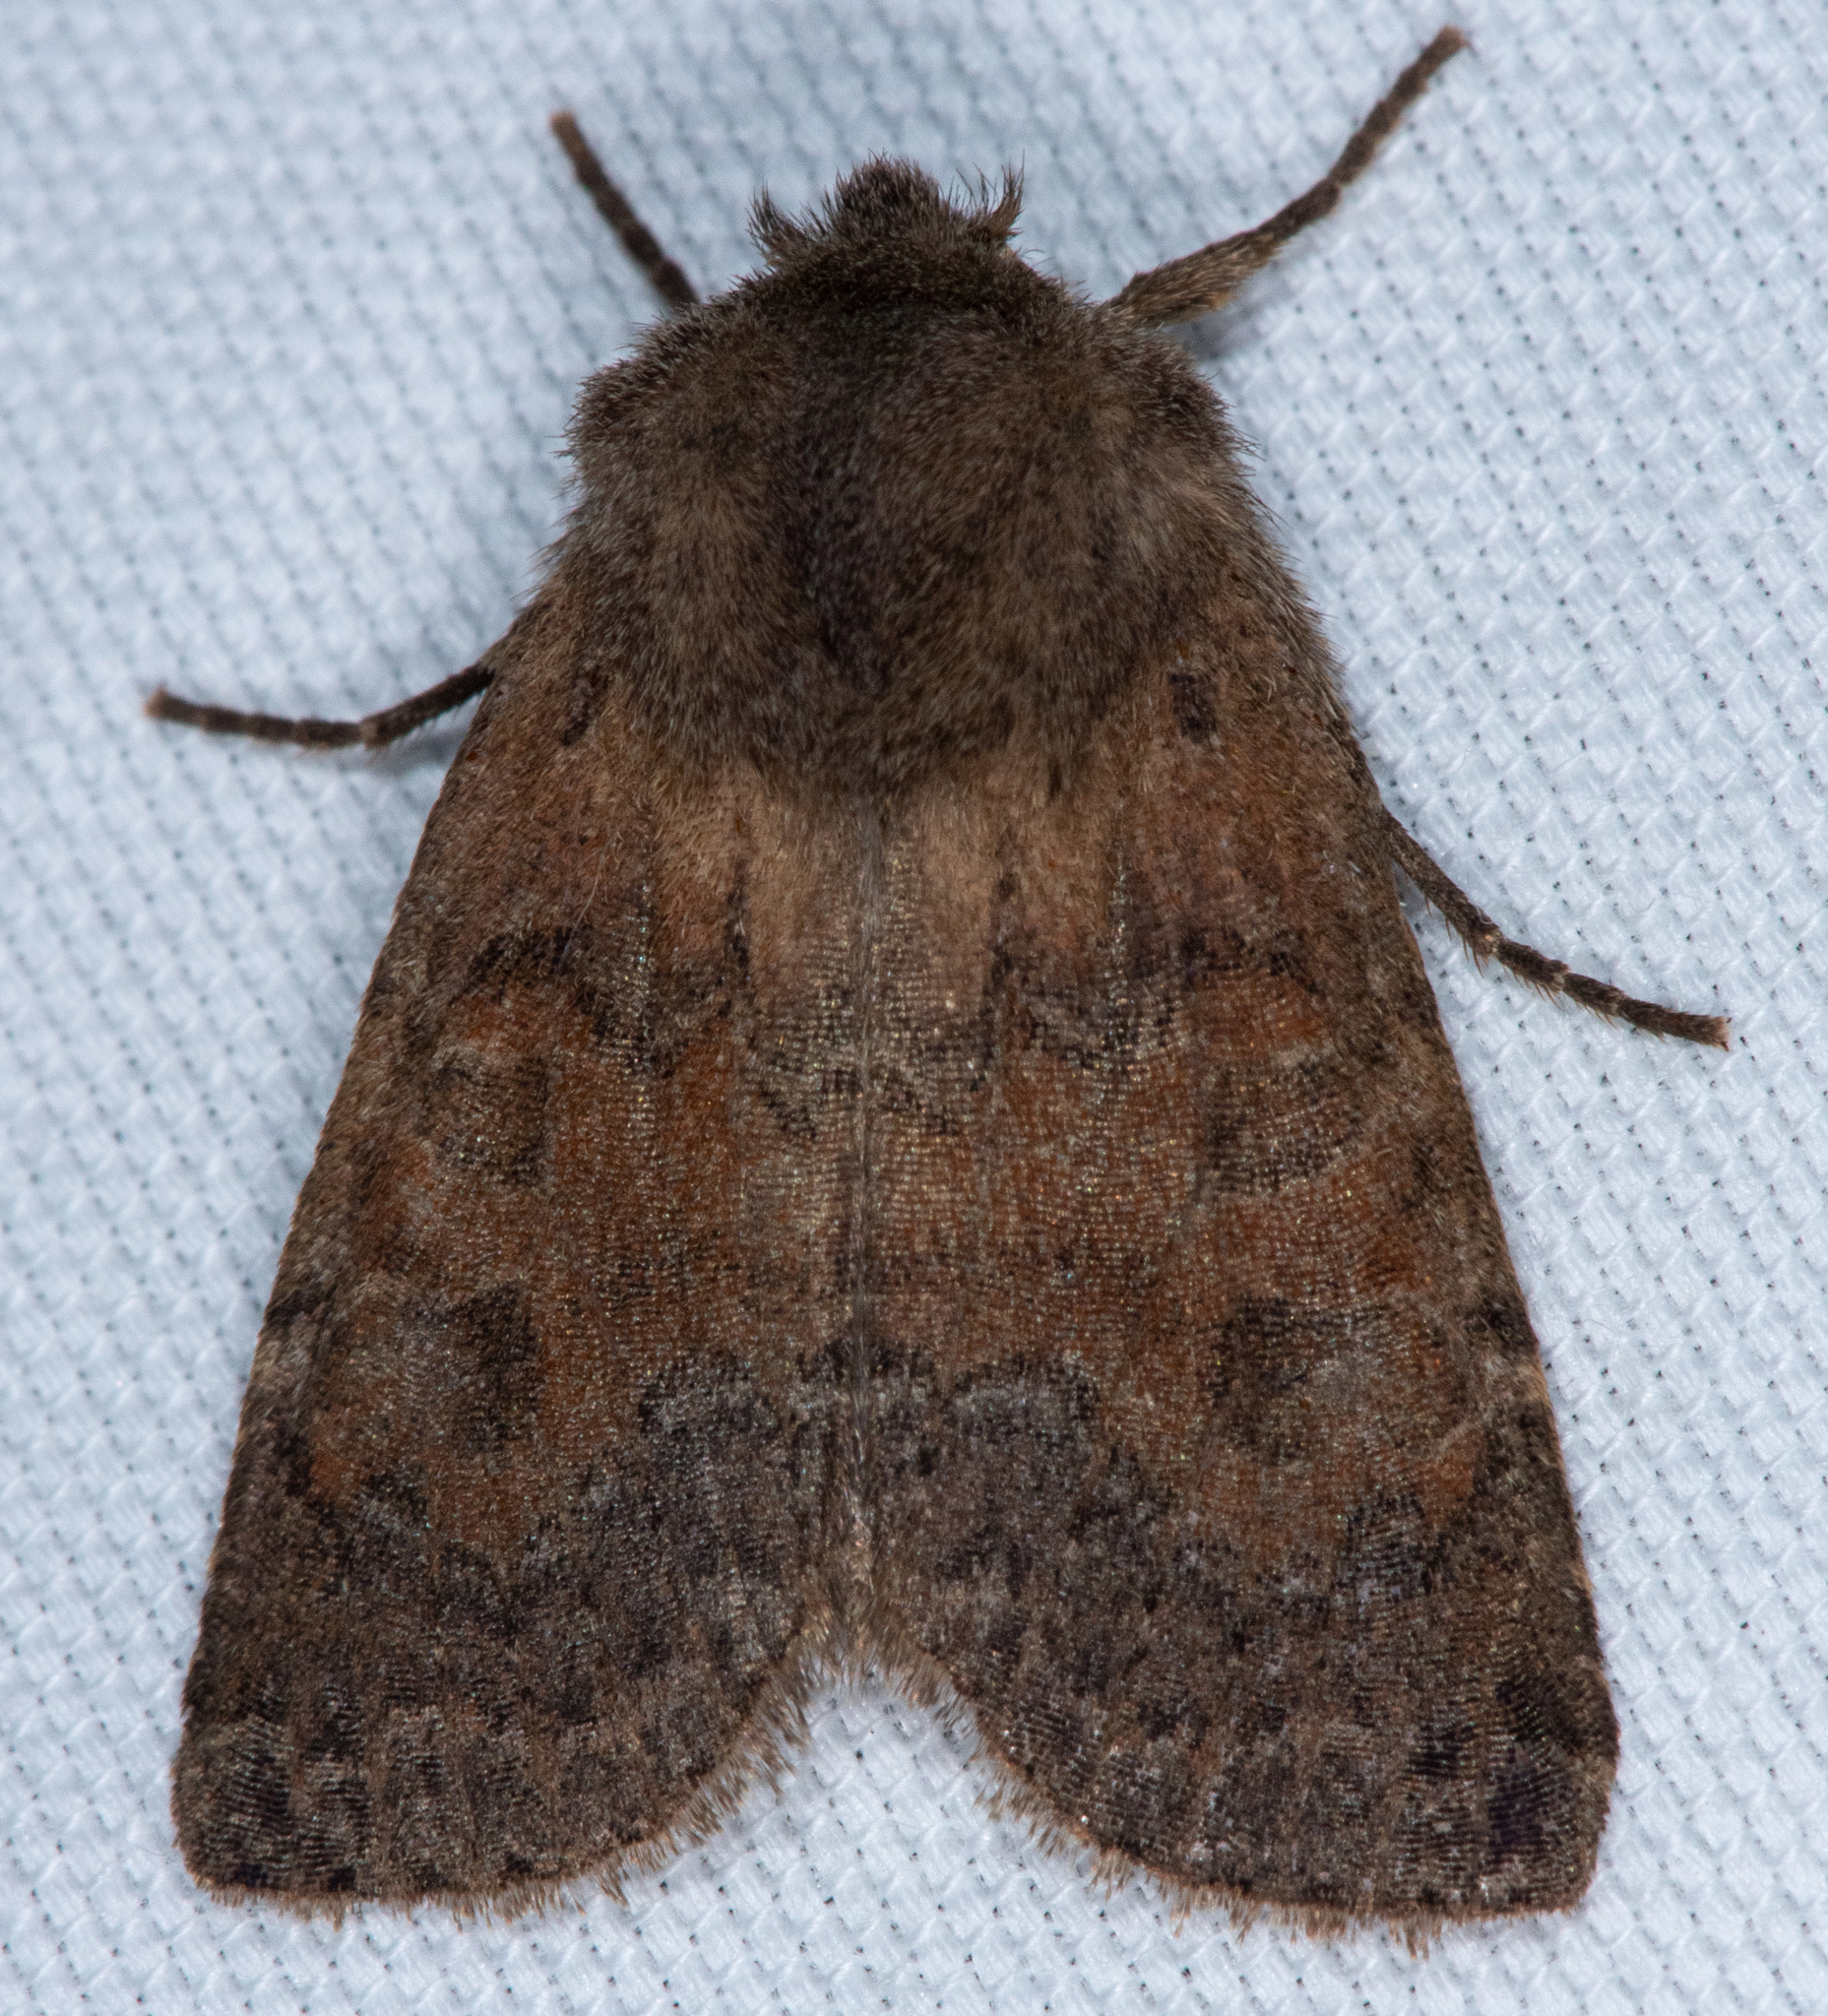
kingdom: Animalia
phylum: Arthropoda
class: Insecta
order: Lepidoptera
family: Noctuidae
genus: Homoglaea
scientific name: Homoglaea californica
